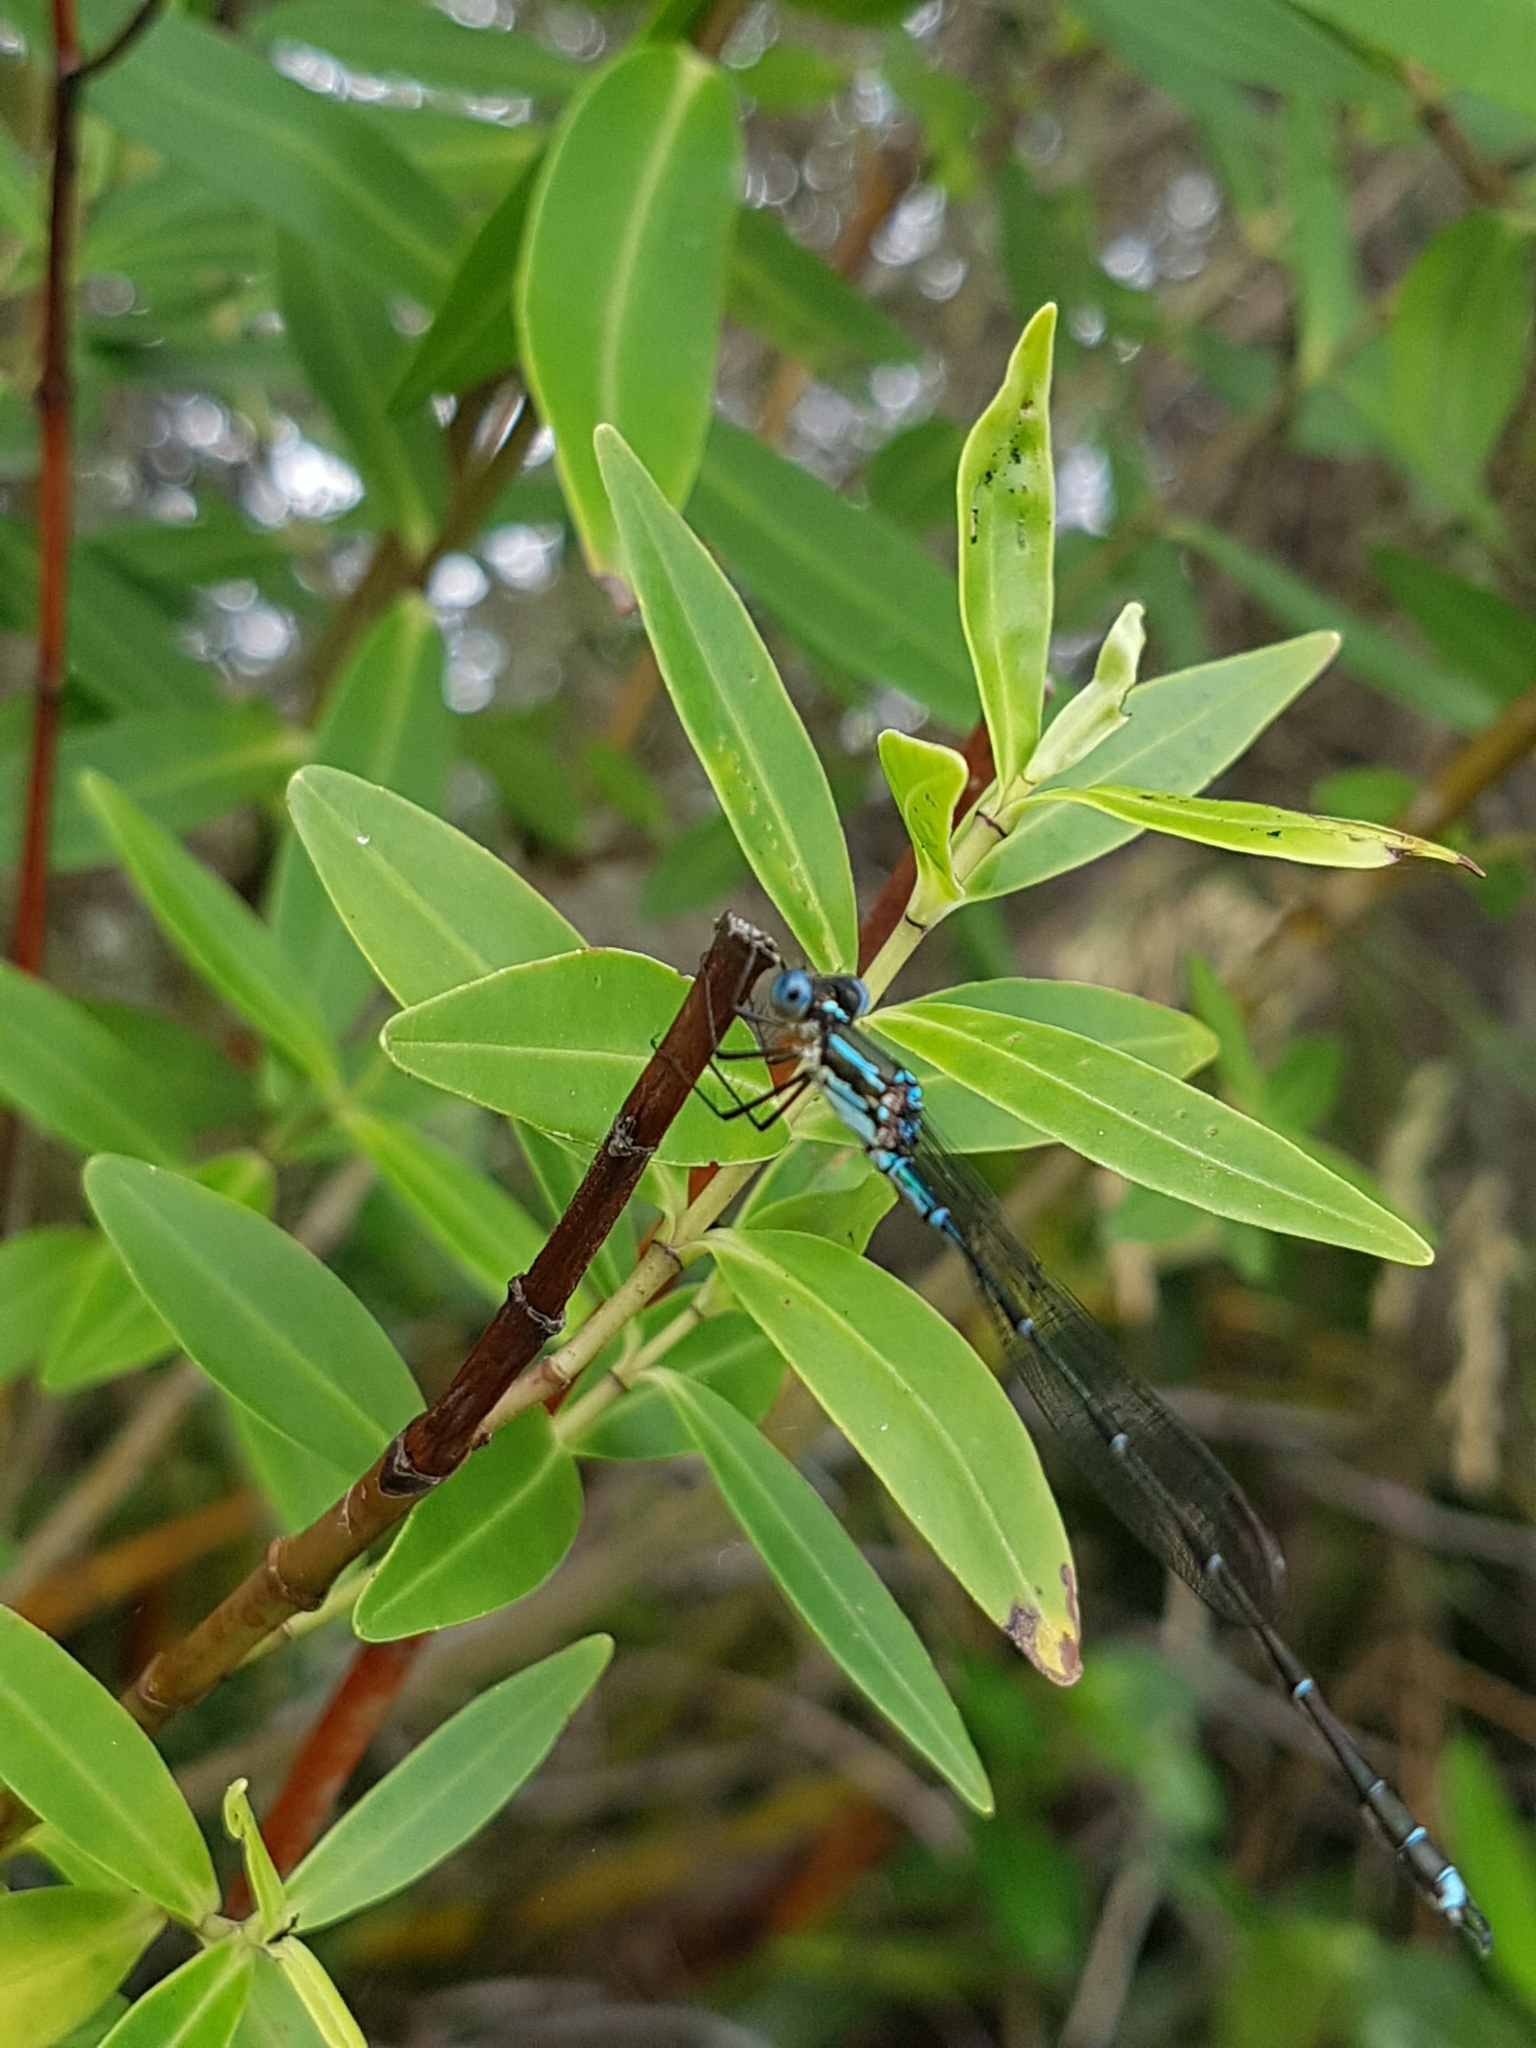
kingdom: Animalia
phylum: Arthropoda
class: Insecta
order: Odonata
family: Lestidae
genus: Austrolestes
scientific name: Austrolestes colensonis
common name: Blue damselfly
